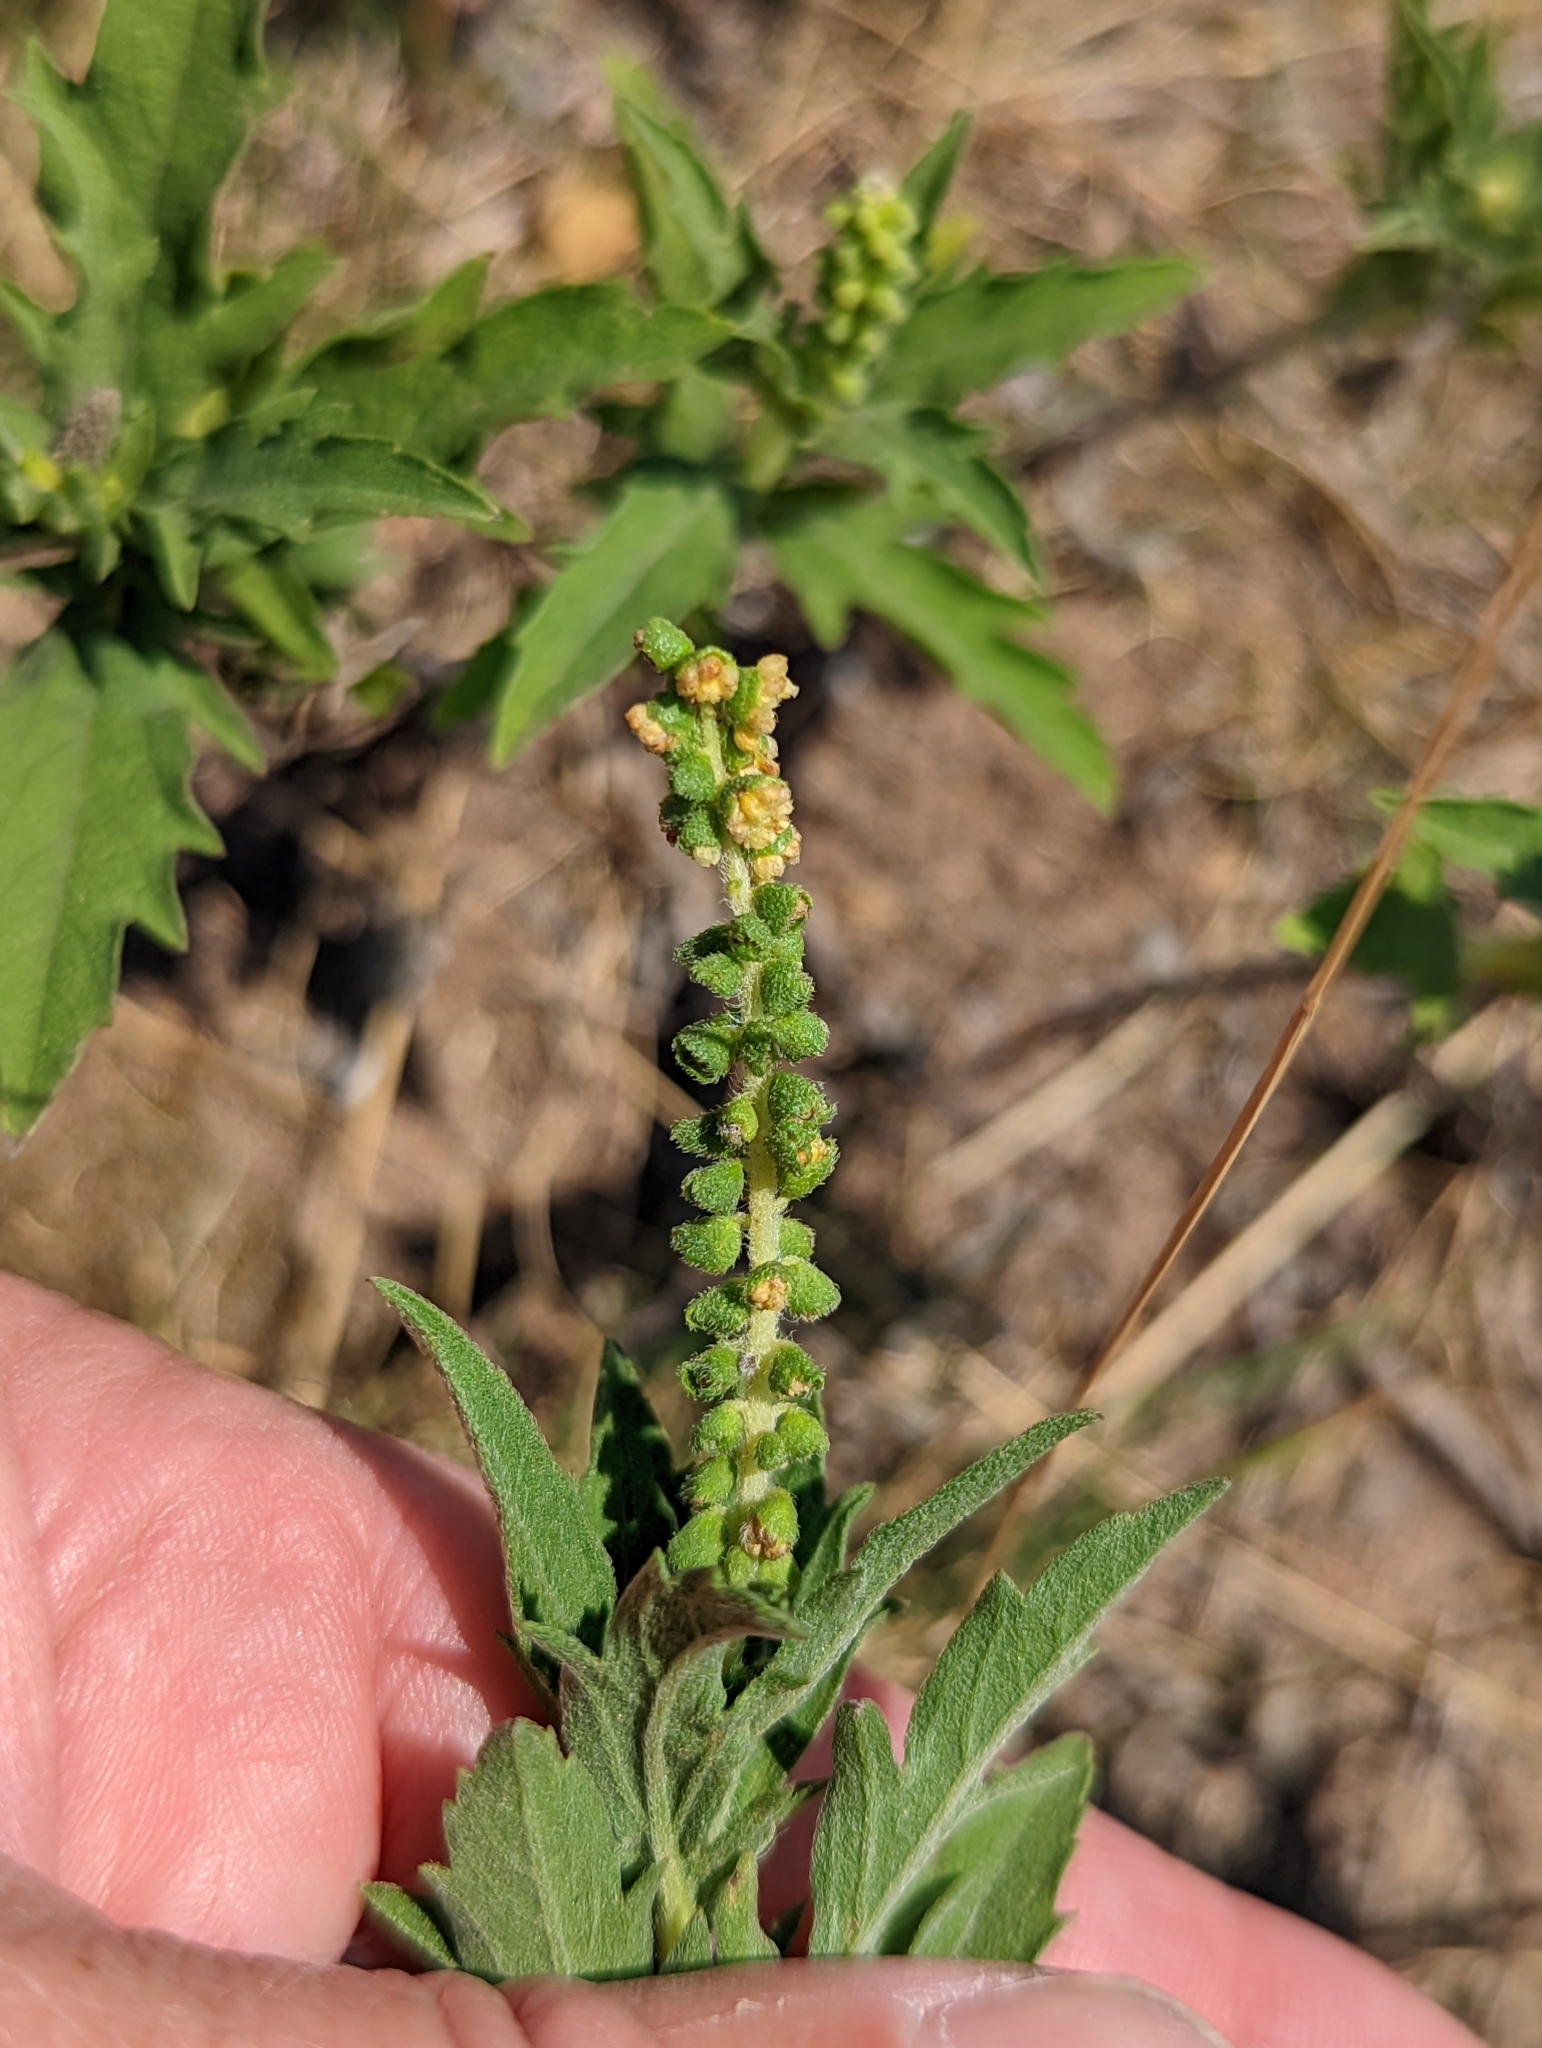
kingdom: Plantae
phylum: Tracheophyta
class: Magnoliopsida
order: Asterales
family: Asteraceae
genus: Ambrosia
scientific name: Ambrosia psilostachya
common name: Perennial ragweed
